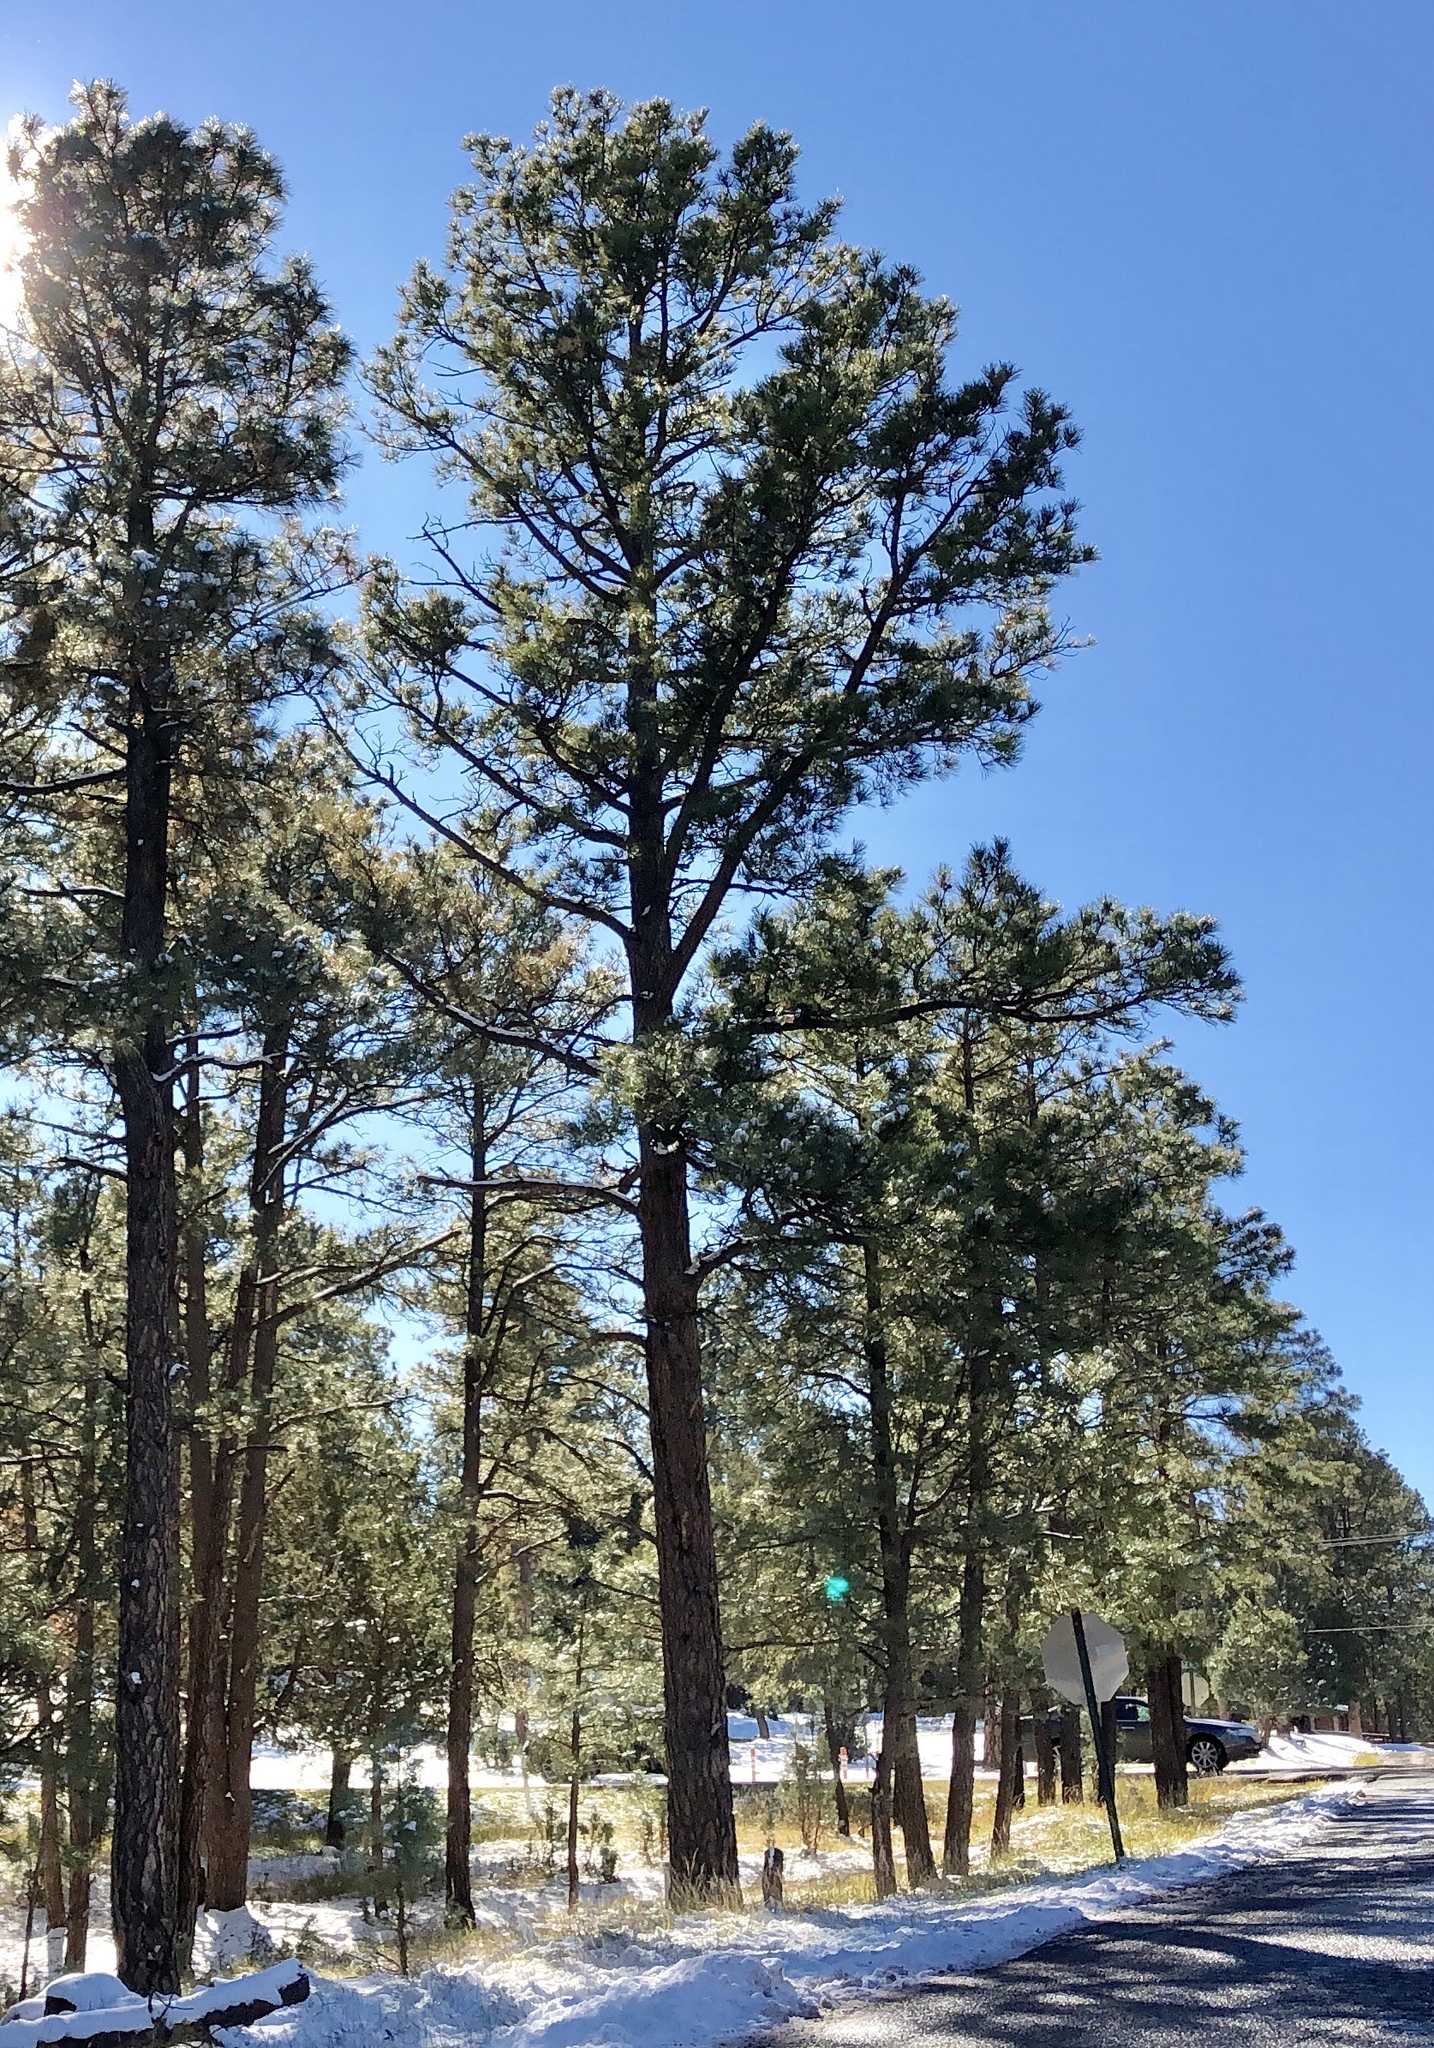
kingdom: Plantae
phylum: Tracheophyta
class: Pinopsida
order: Pinales
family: Pinaceae
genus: Pinus
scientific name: Pinus ponderosa
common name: Western yellow-pine
